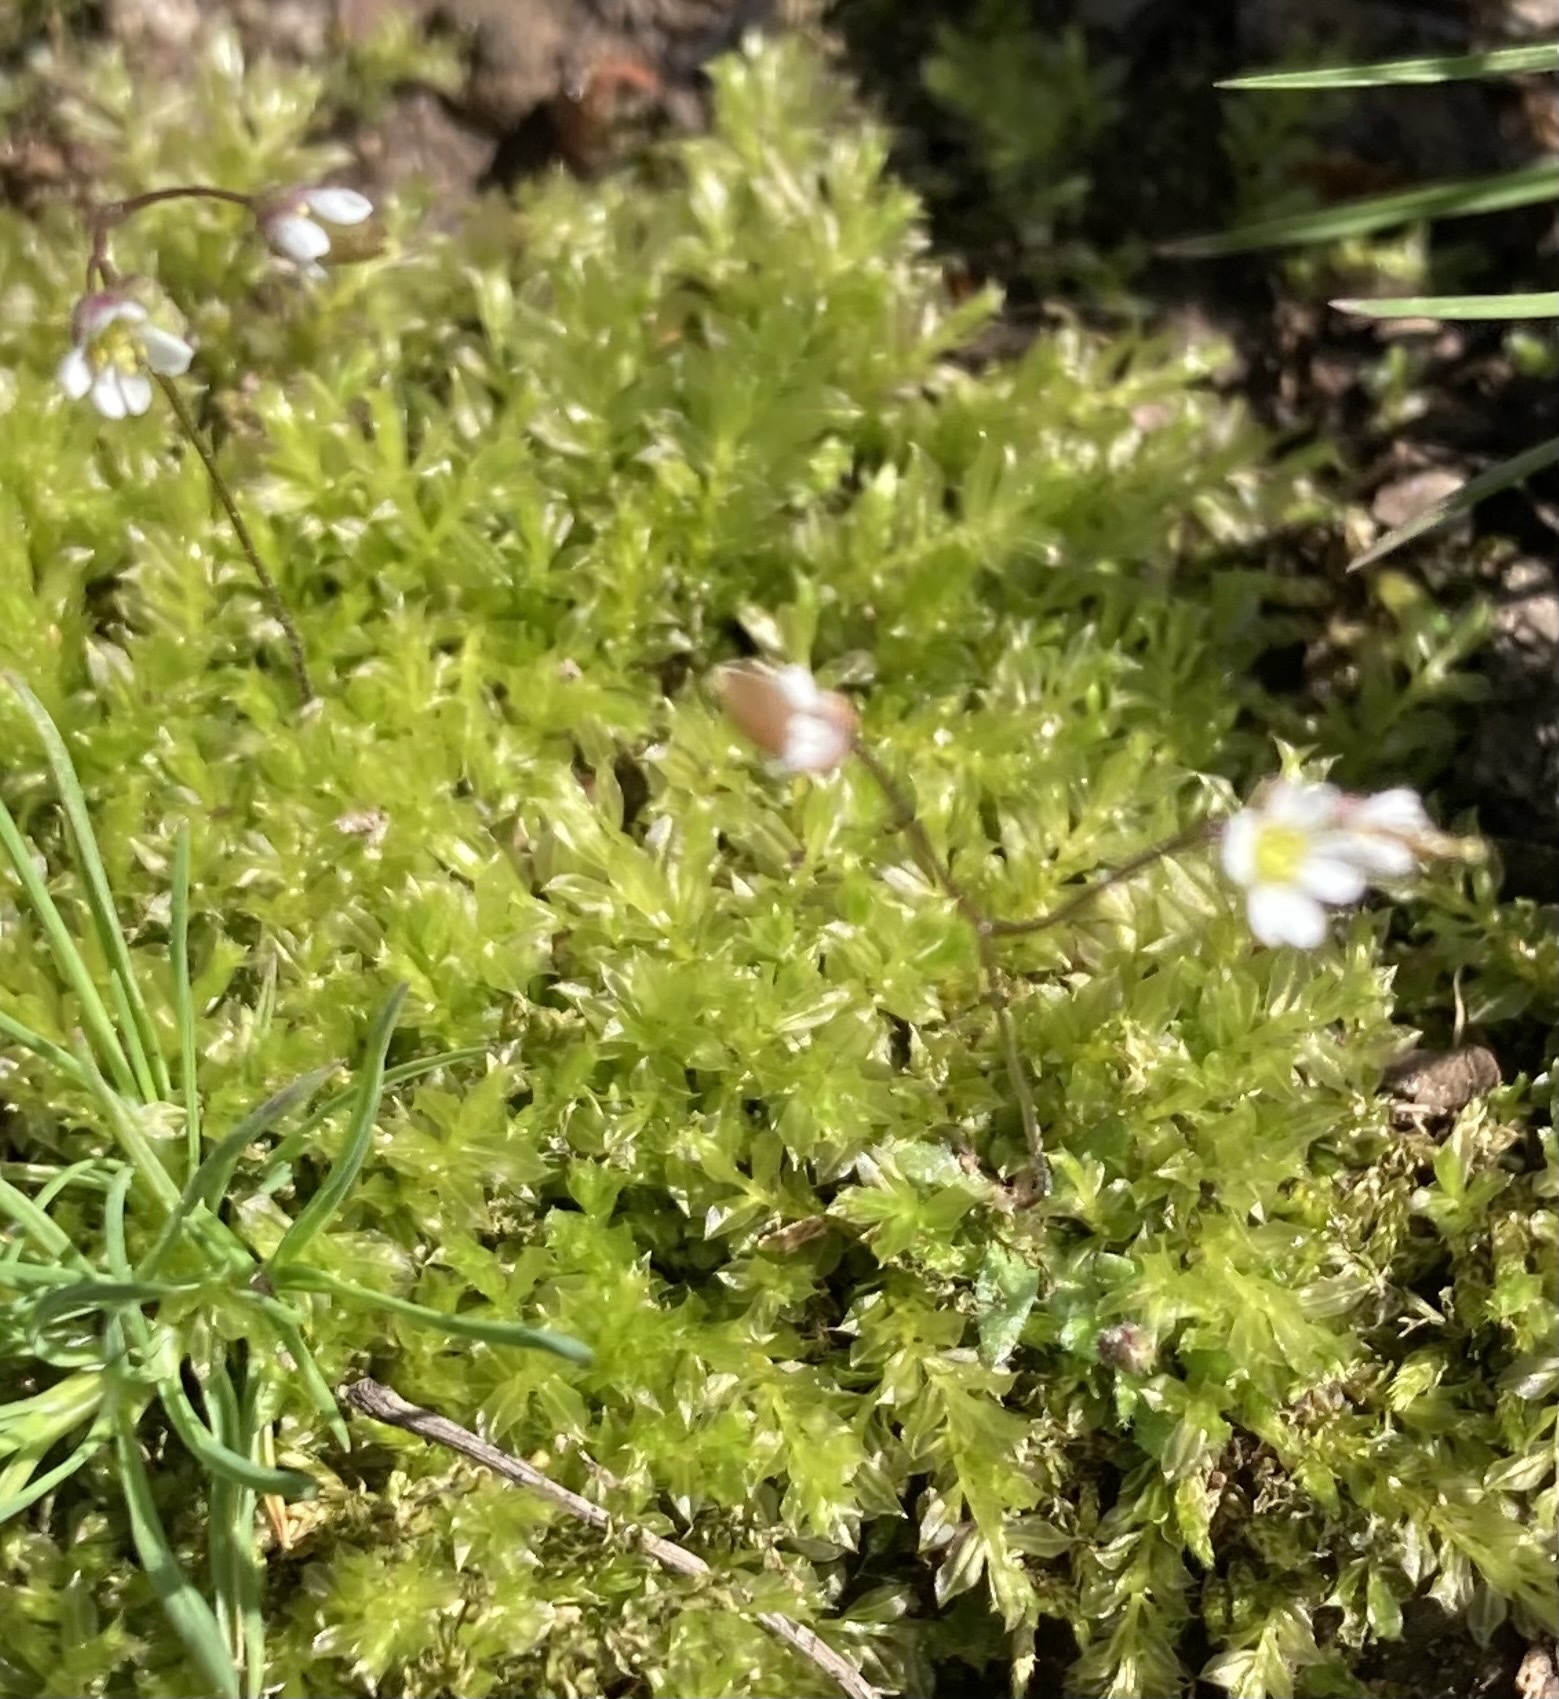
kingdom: Plantae
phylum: Tracheophyta
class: Magnoliopsida
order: Brassicales
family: Brassicaceae
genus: Draba
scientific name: Draba verna
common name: Spring draba
